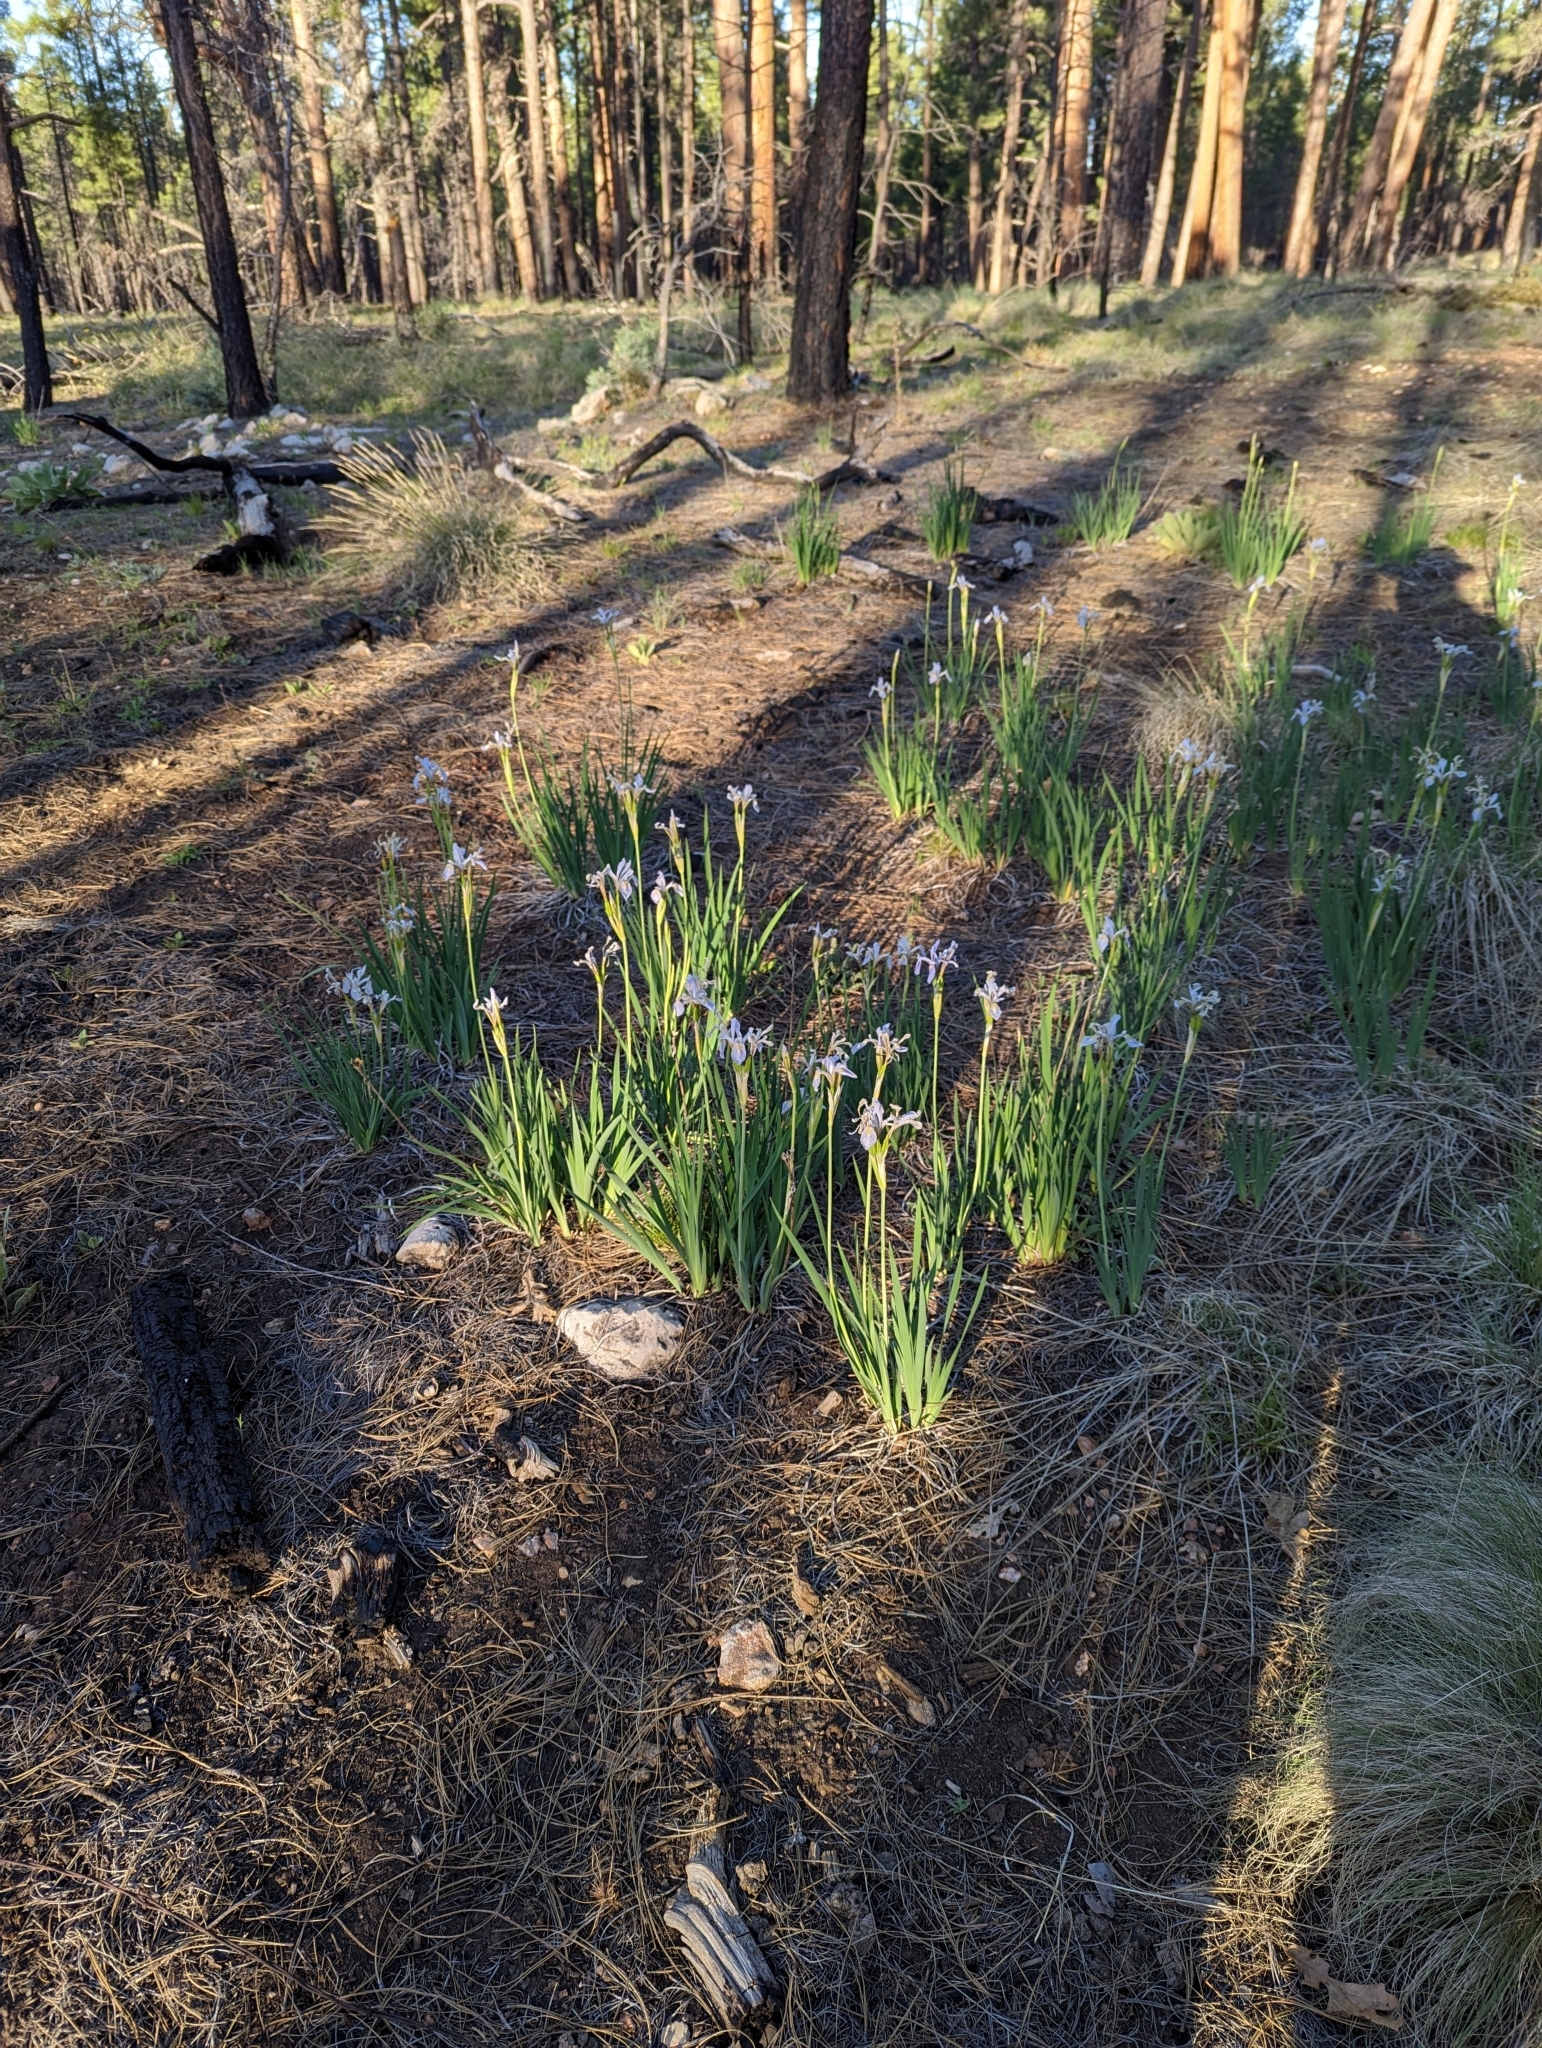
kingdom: Plantae
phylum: Tracheophyta
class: Liliopsida
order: Asparagales
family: Iridaceae
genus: Iris
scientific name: Iris missouriensis
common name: Rocky mountain iris
